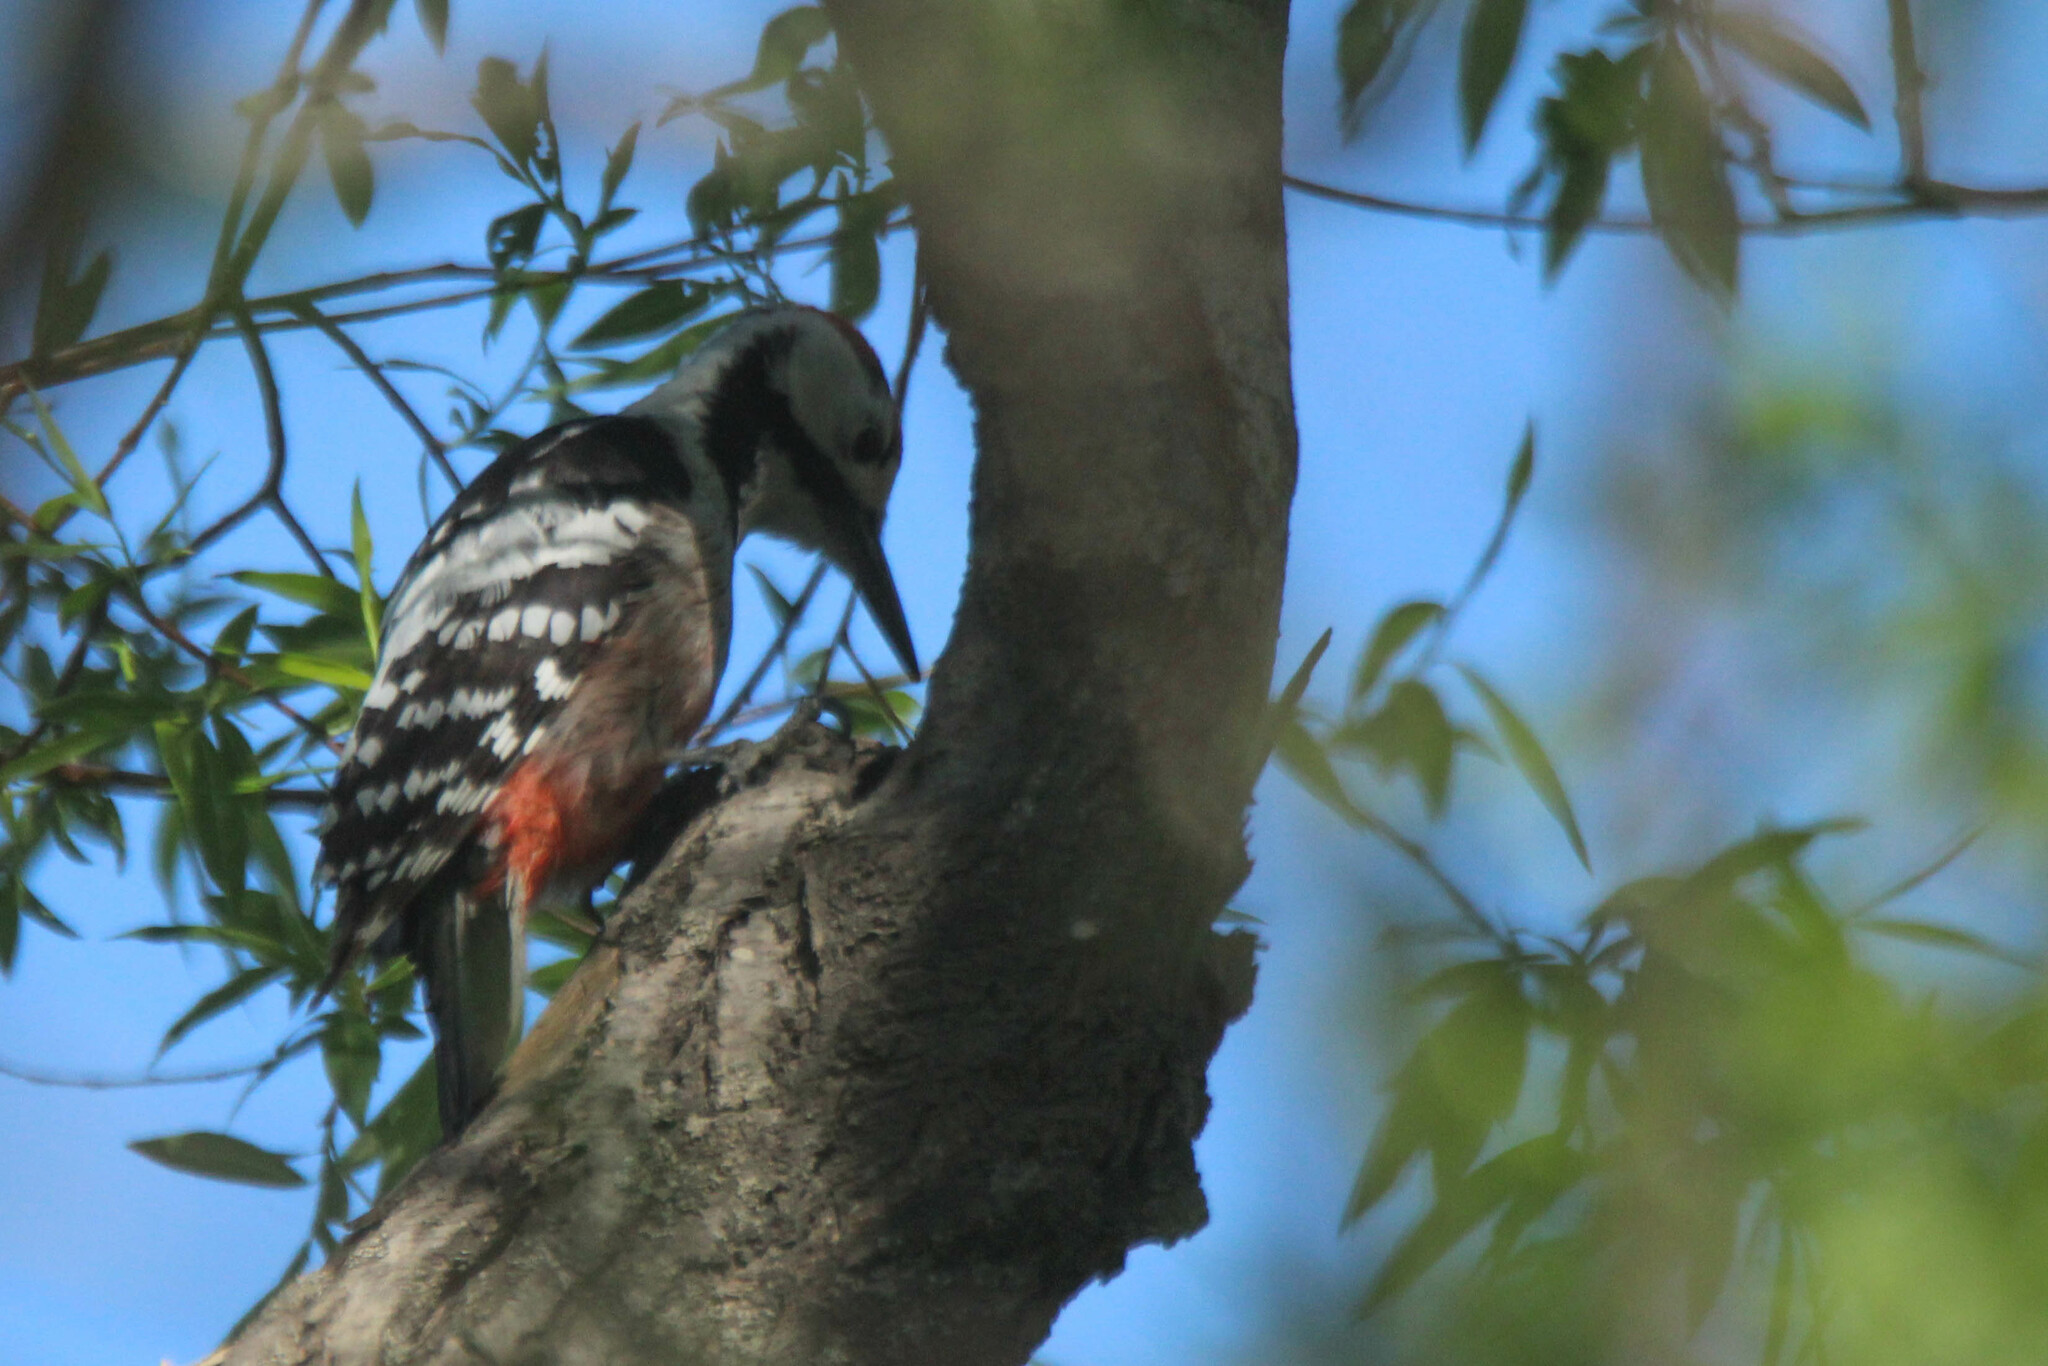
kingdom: Animalia
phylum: Chordata
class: Aves
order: Piciformes
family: Picidae
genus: Dendrocopos
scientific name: Dendrocopos leucotos
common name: White-backed woodpecker
